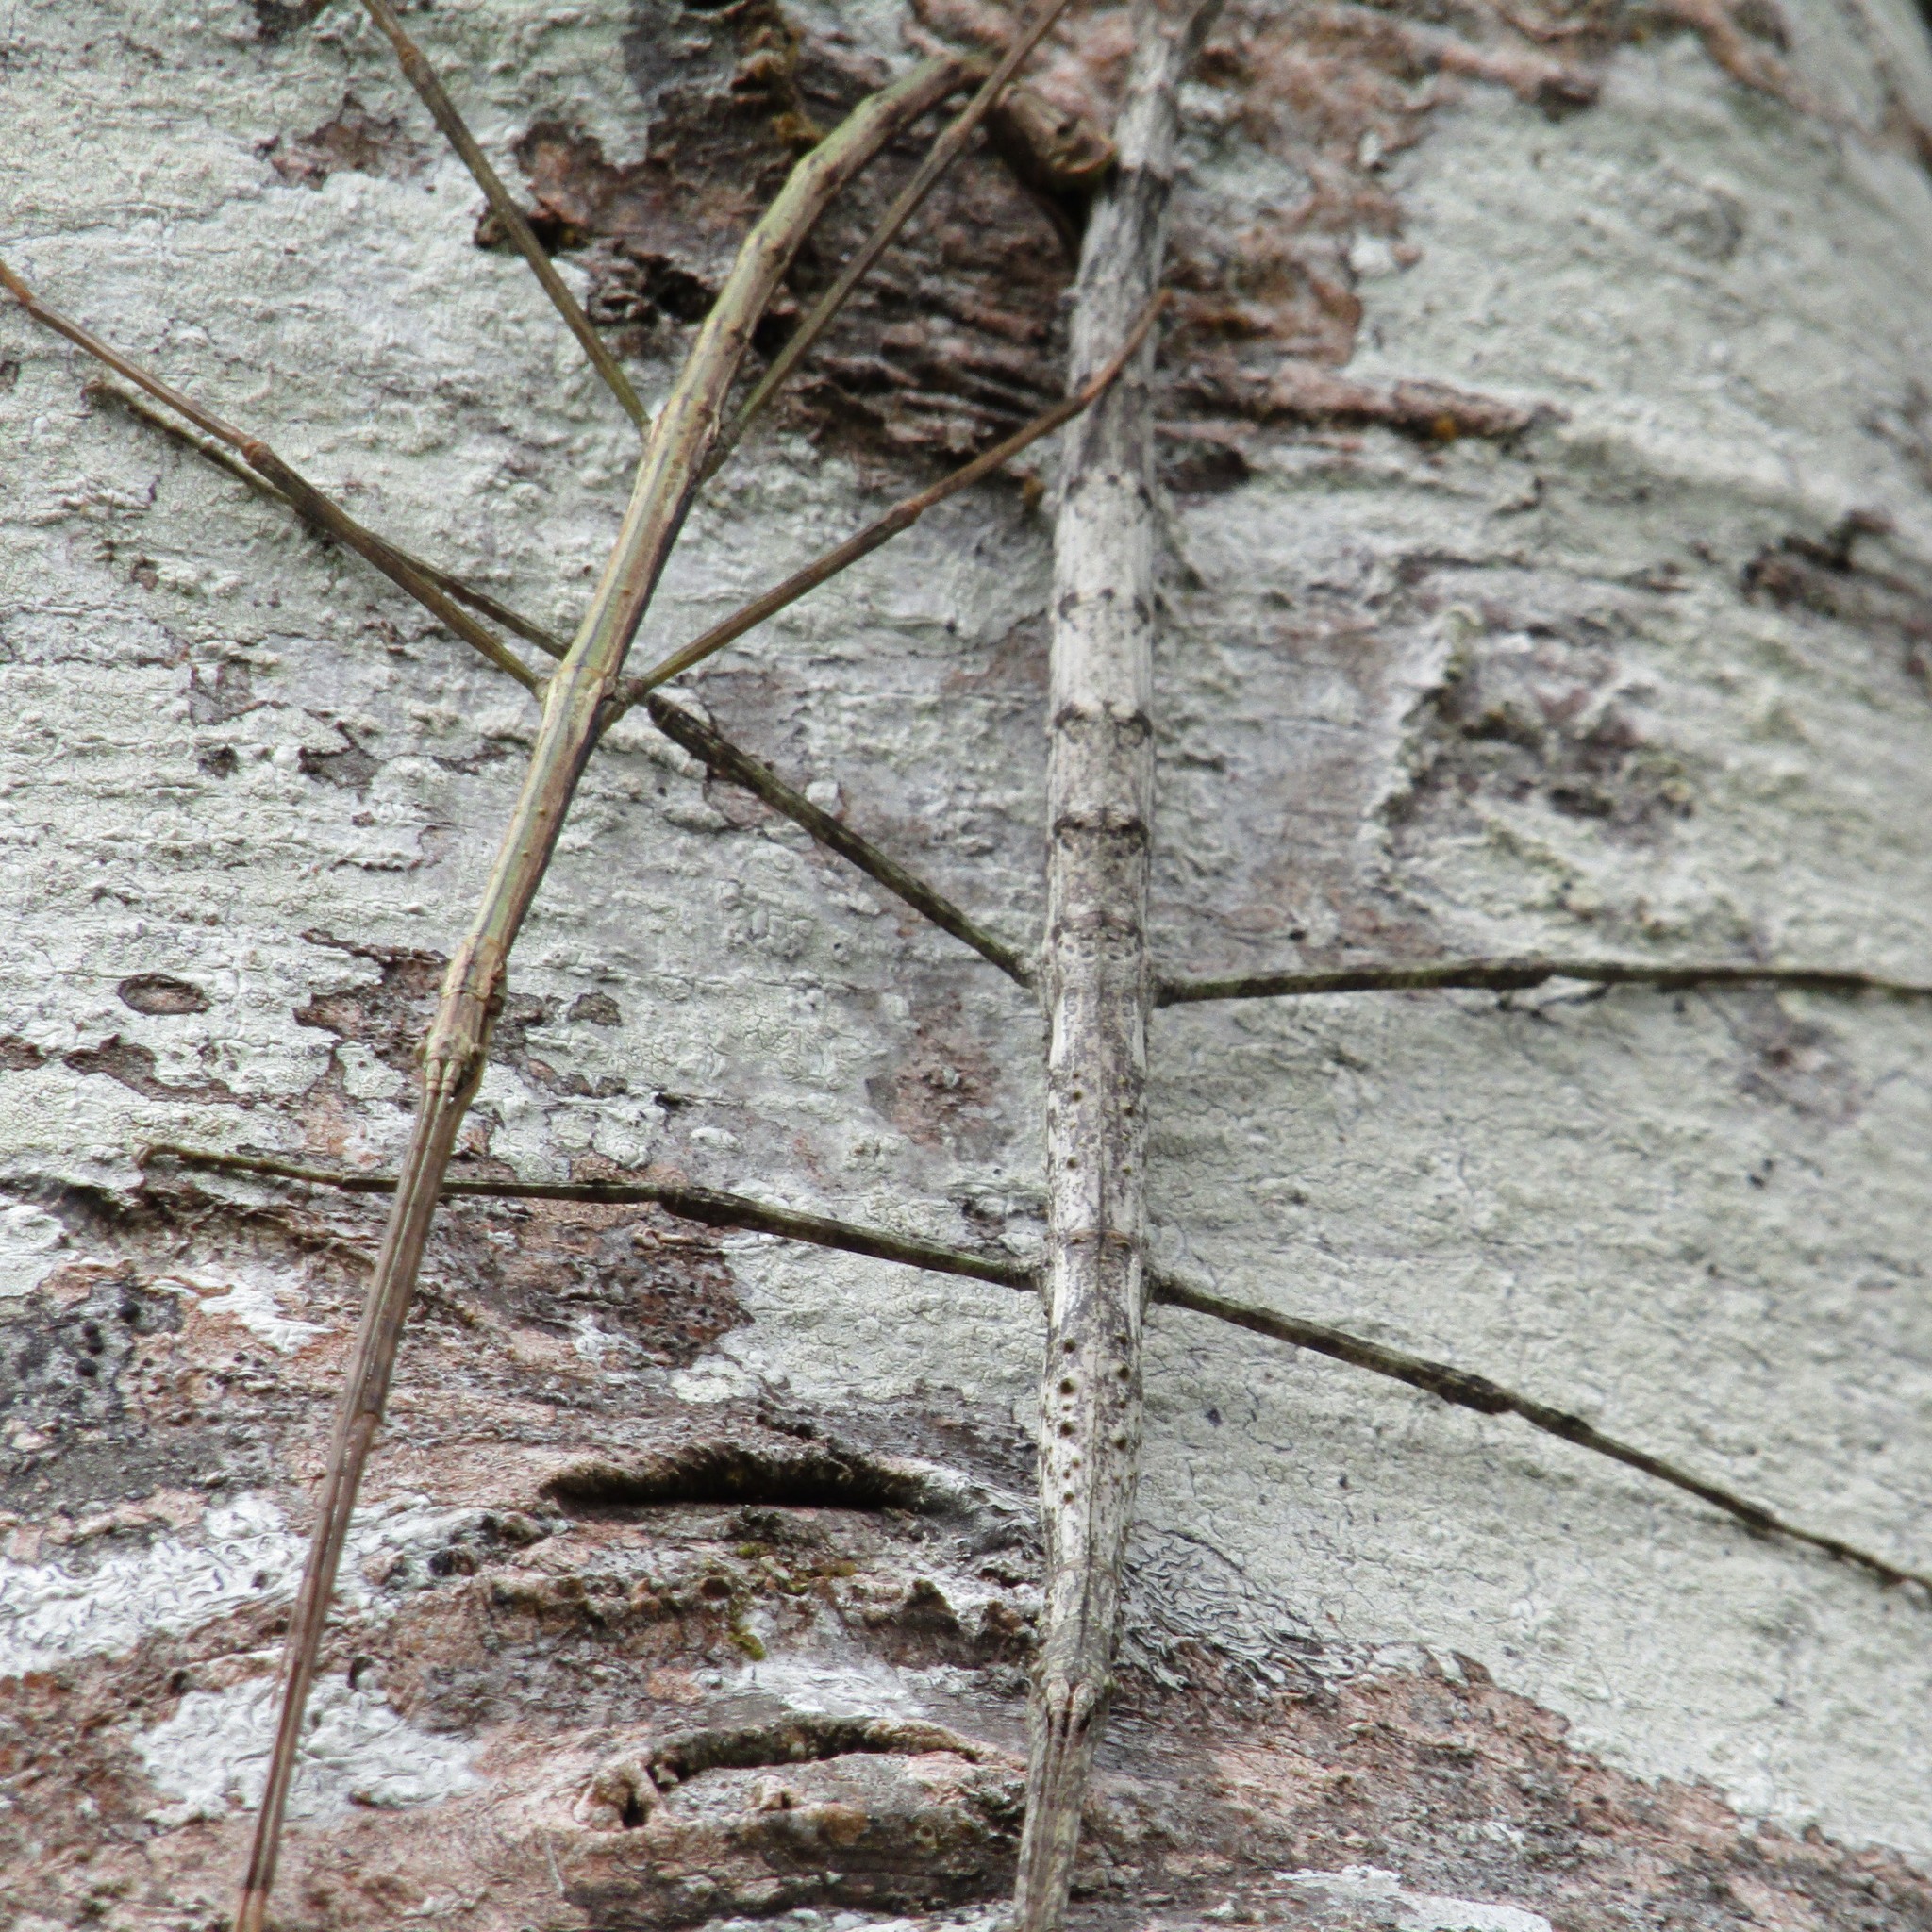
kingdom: Animalia
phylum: Arthropoda
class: Insecta
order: Phasmida
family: Phasmatidae
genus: Clitarchus
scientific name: Clitarchus hookeri
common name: Smooth stick insect
